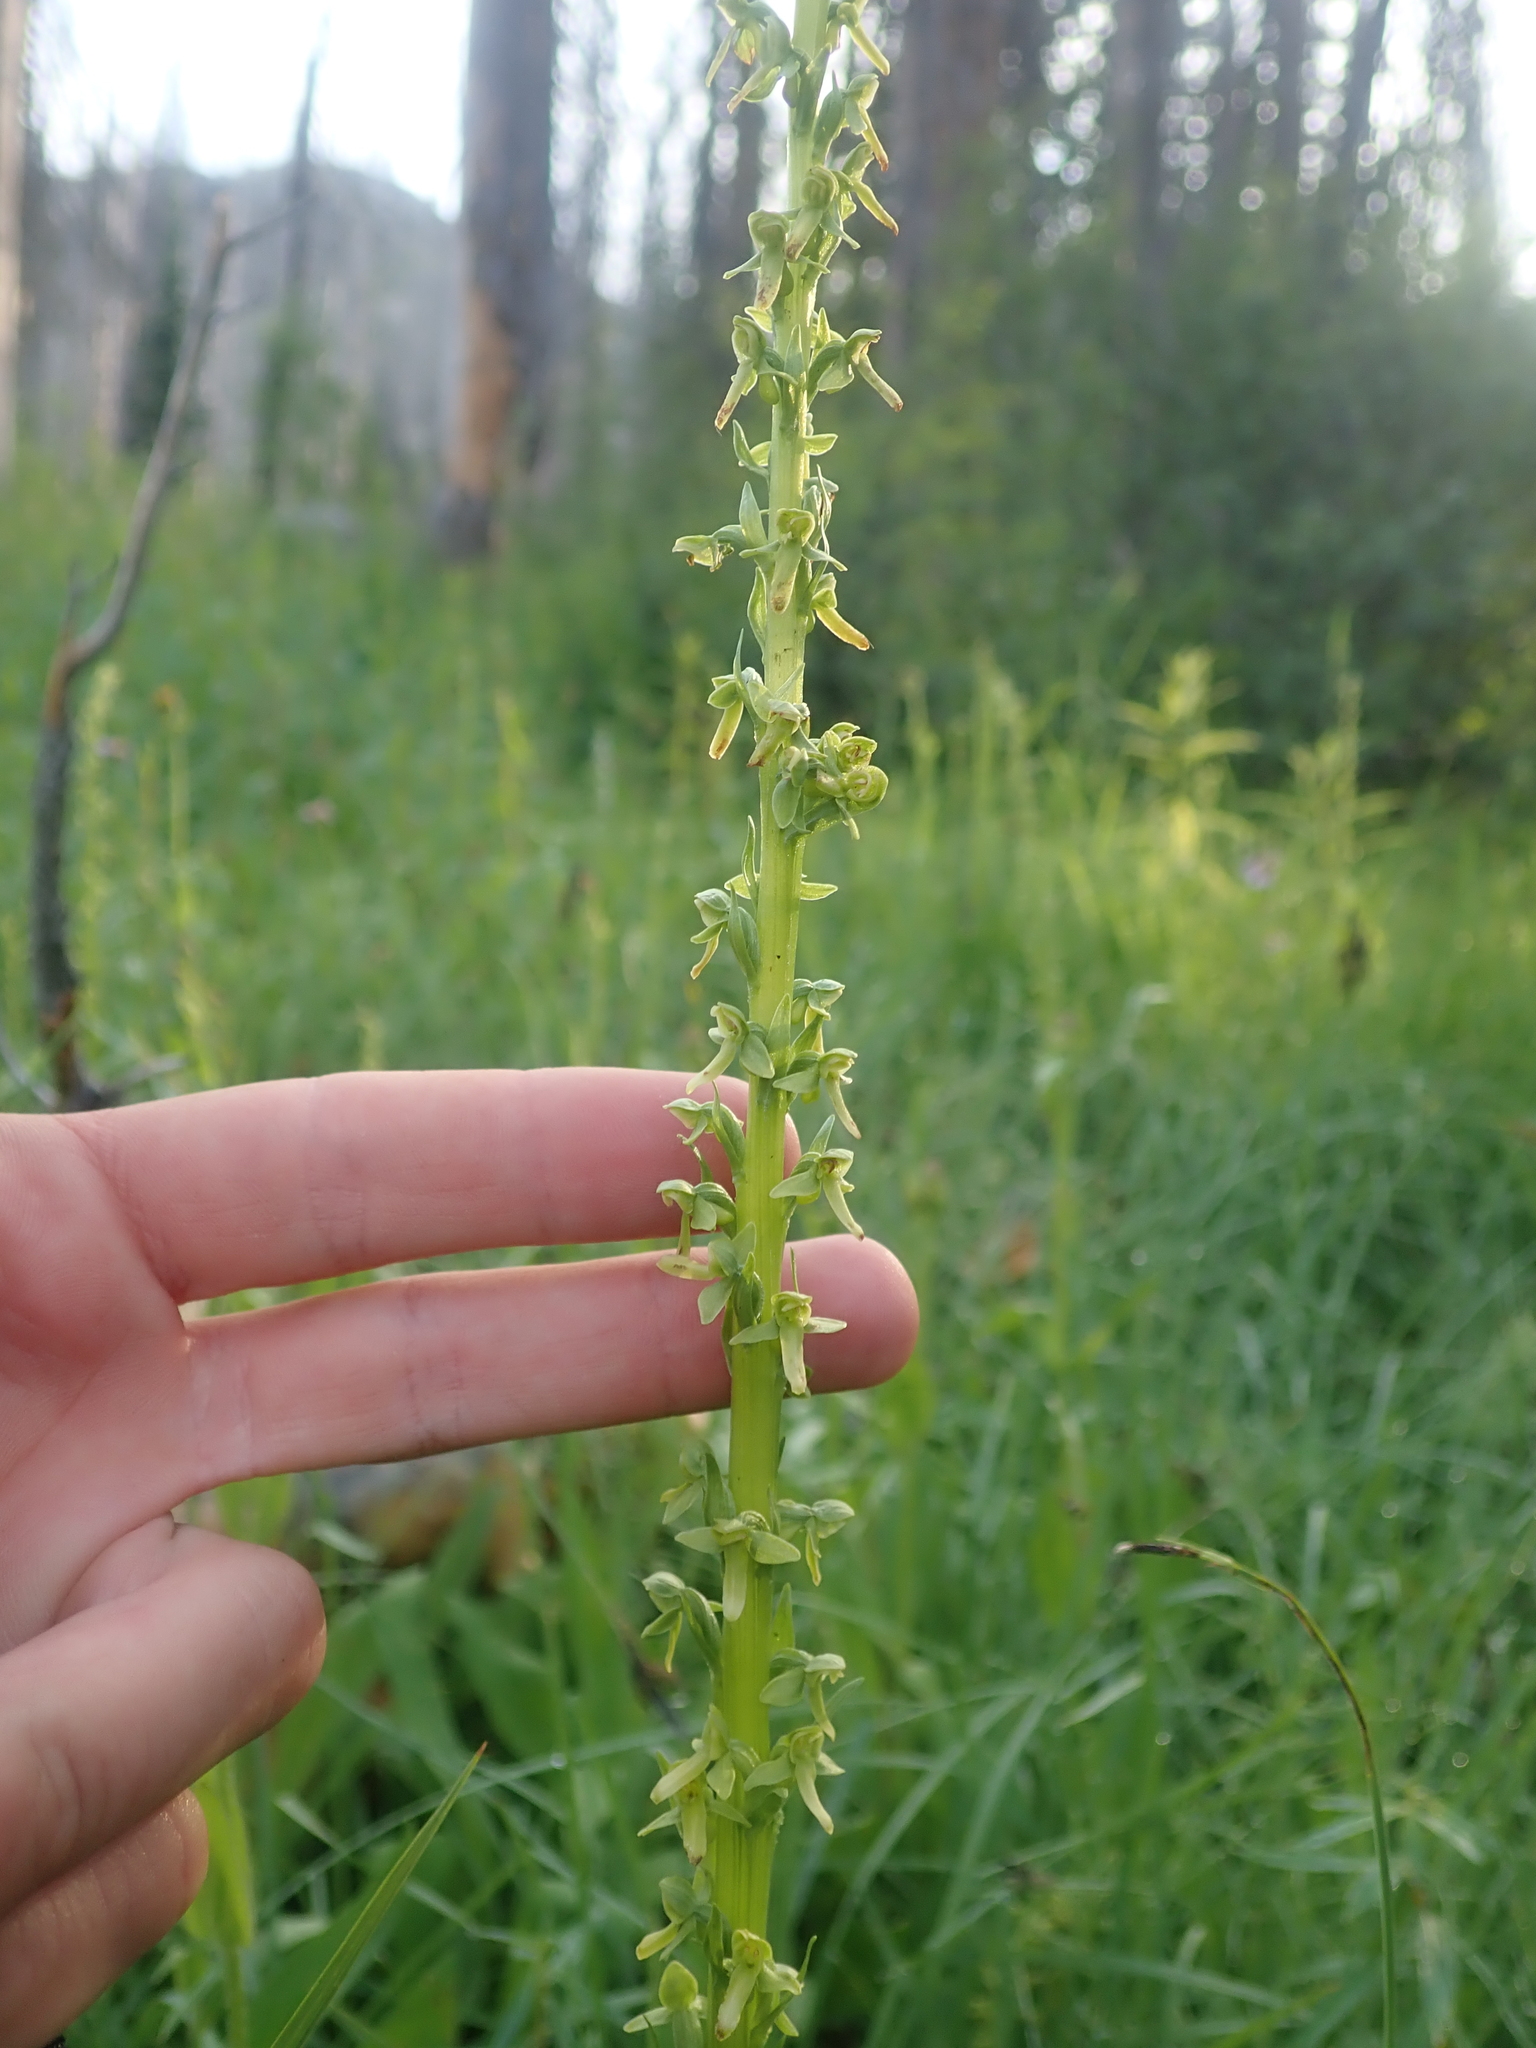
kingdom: Plantae
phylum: Tracheophyta
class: Liliopsida
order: Asparagales
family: Orchidaceae
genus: Platanthera
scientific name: Platanthera stricta
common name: Slender bog orchid
